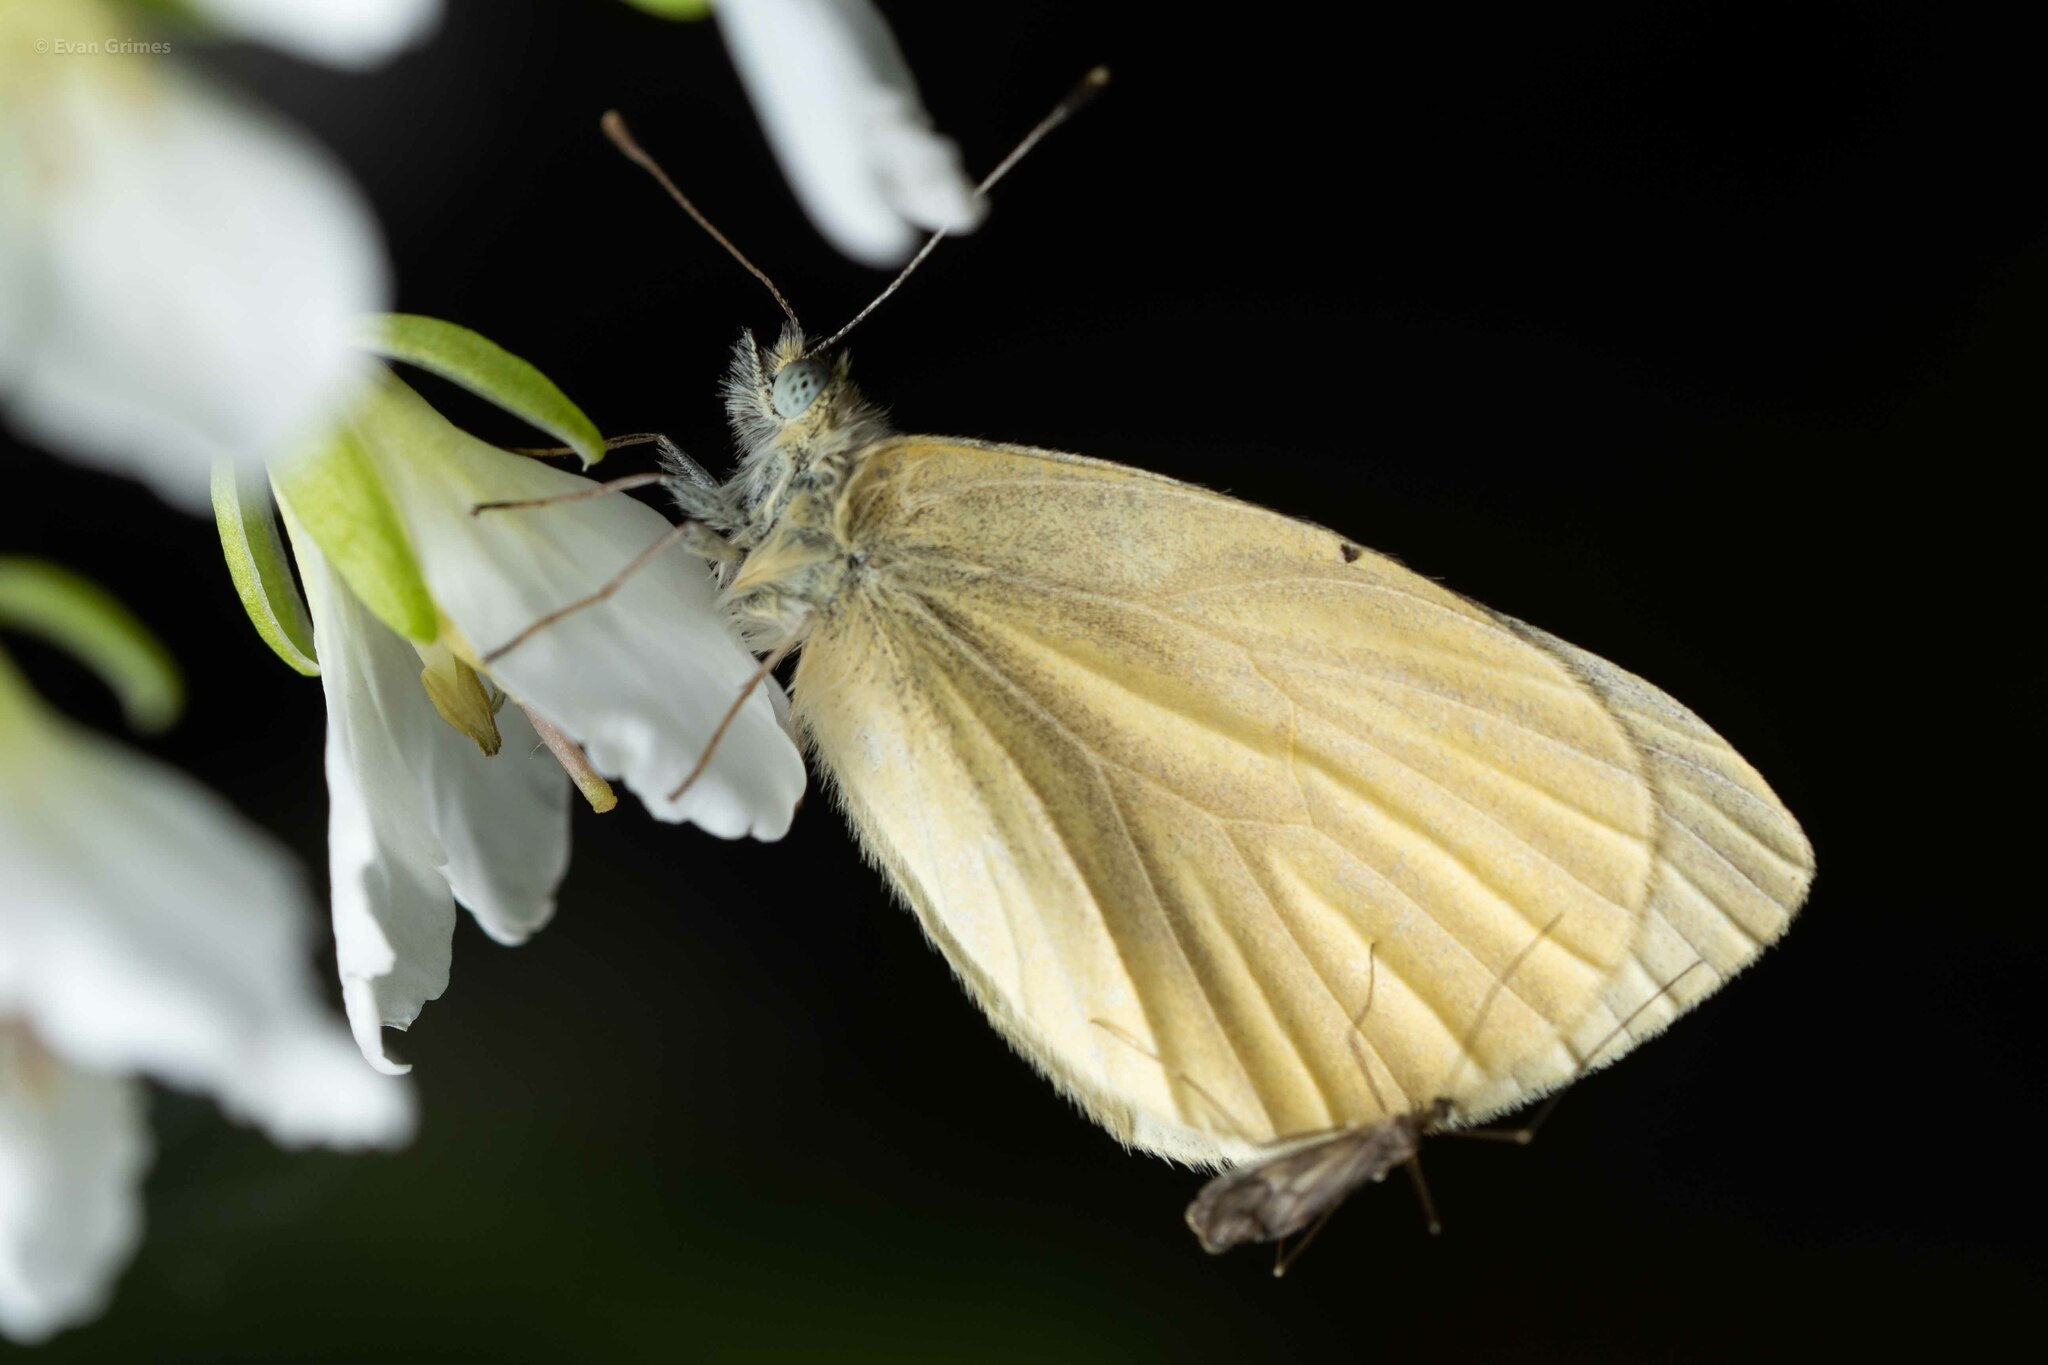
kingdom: Animalia
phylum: Arthropoda
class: Insecta
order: Lepidoptera
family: Pieridae
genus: Pieris
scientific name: Pieris virginiensis
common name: West virginia white
